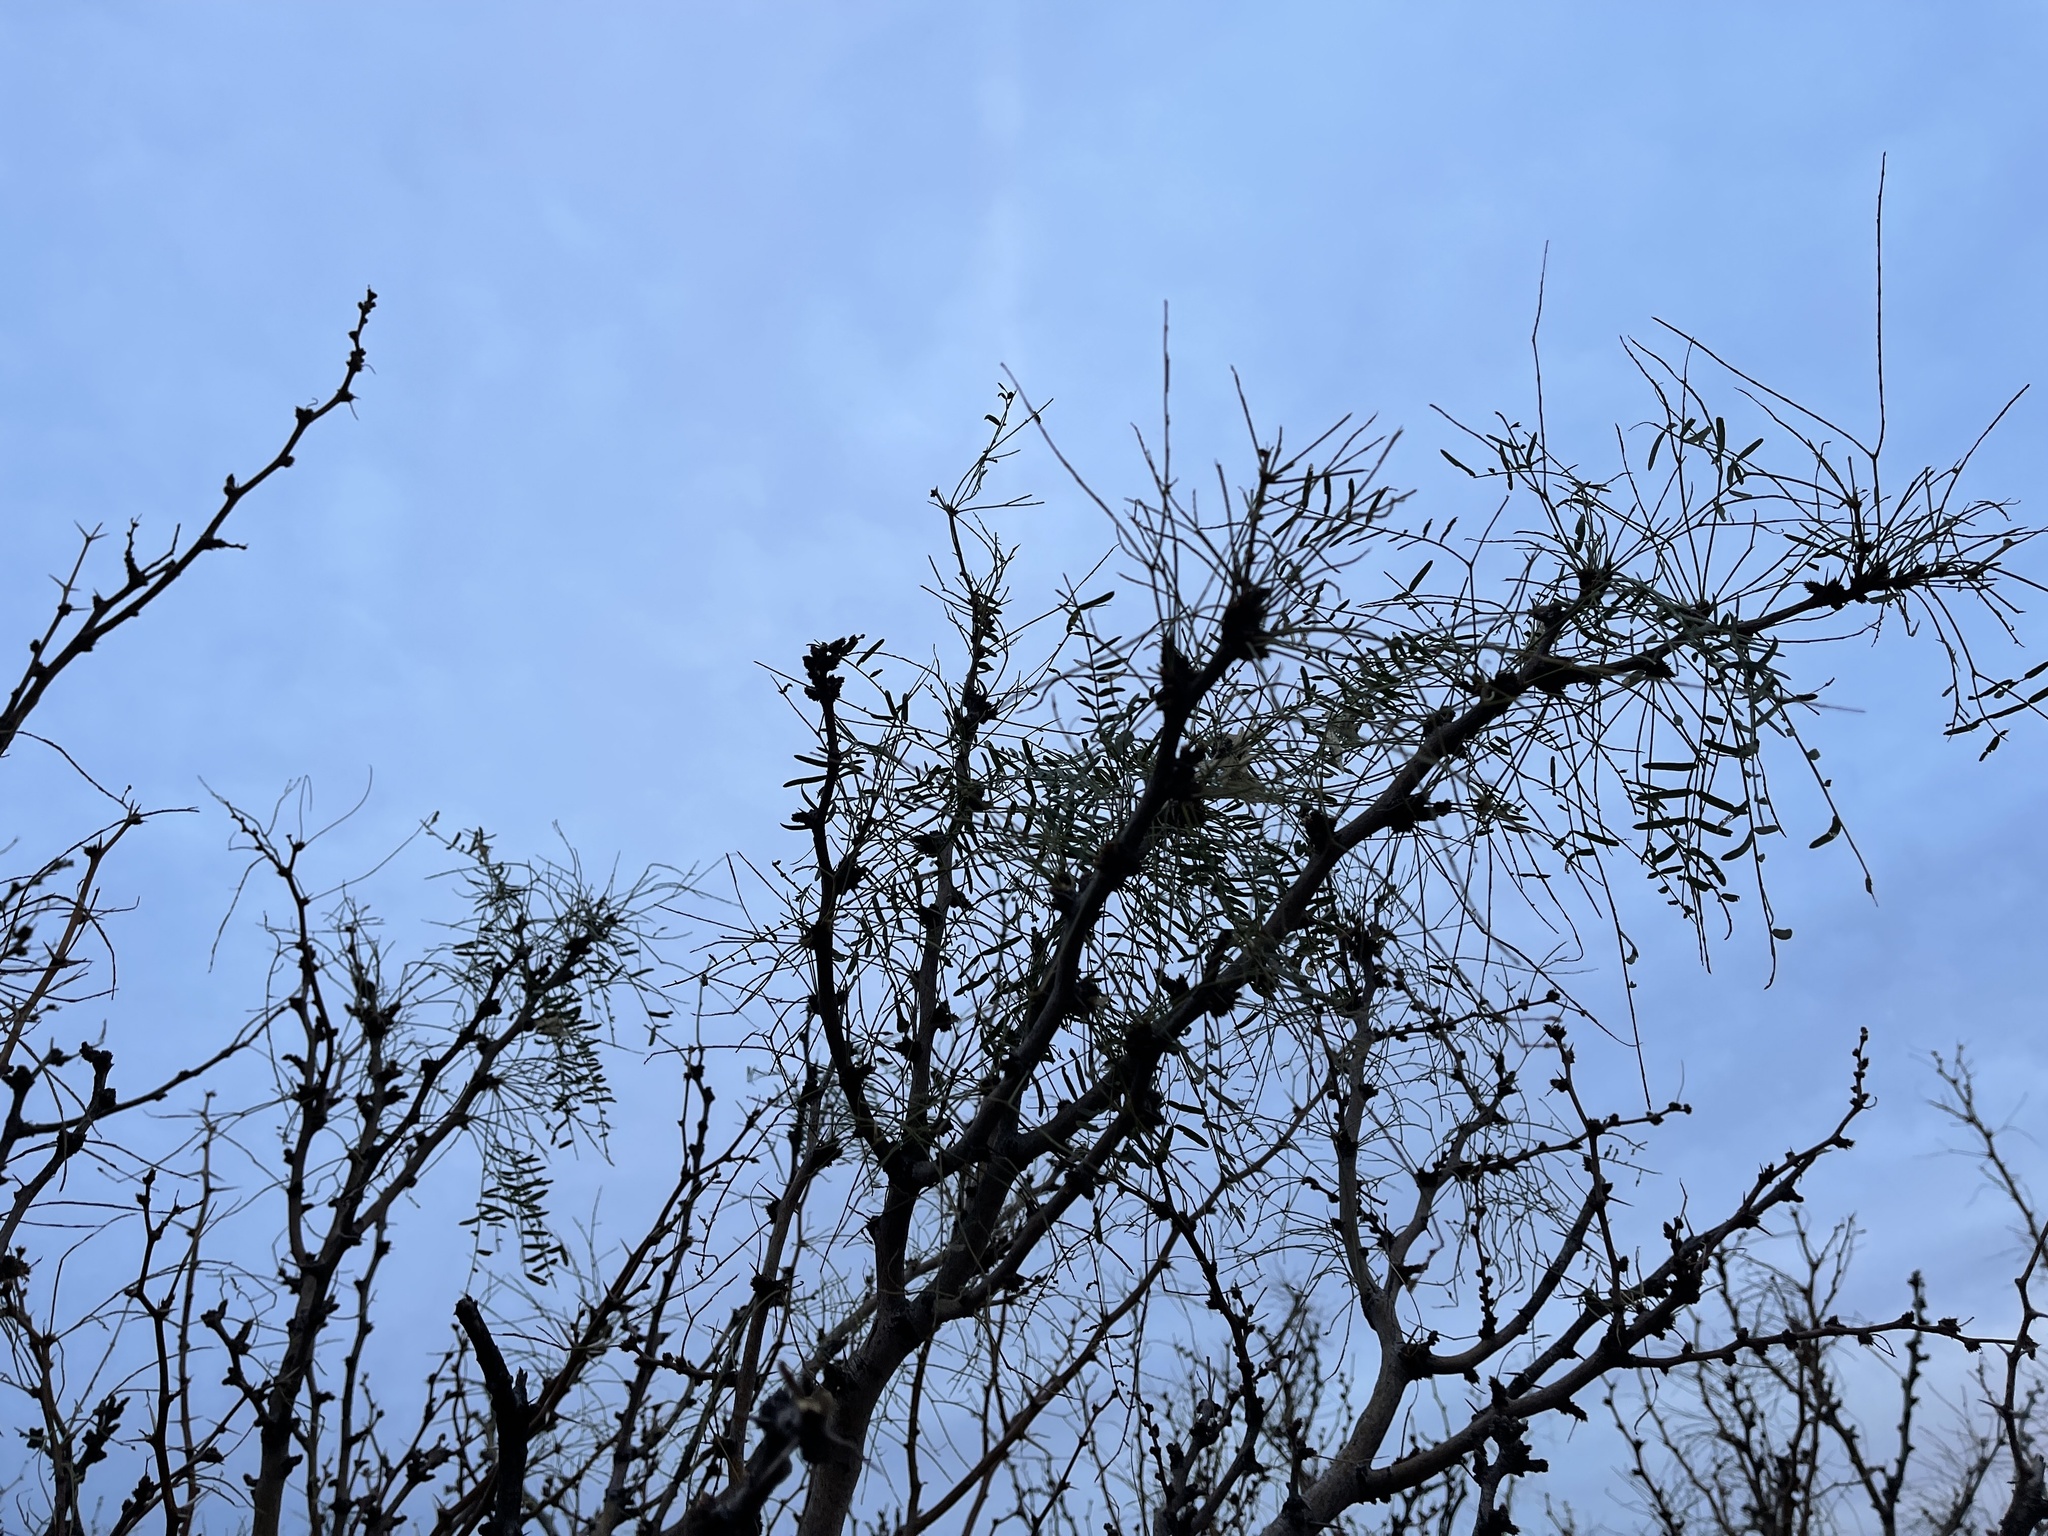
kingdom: Plantae
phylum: Tracheophyta
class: Magnoliopsida
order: Fabales
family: Fabaceae
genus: Prosopis
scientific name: Prosopis glandulosa
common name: Honey mesquite
